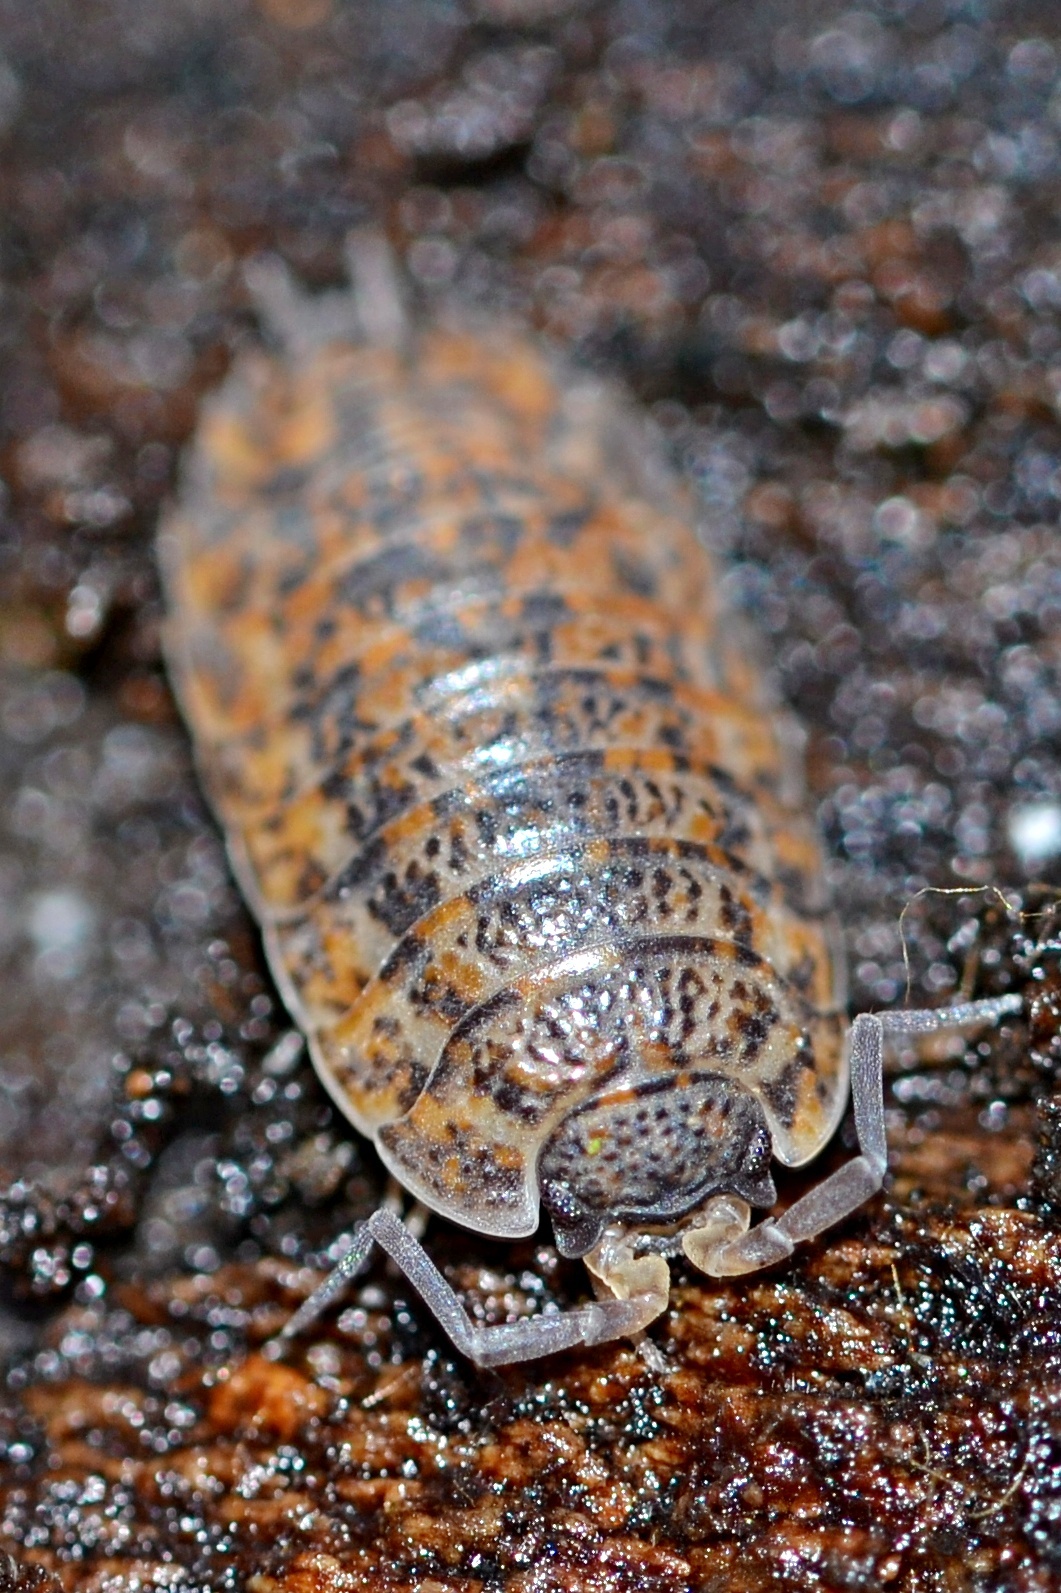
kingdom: Animalia
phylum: Arthropoda
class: Malacostraca
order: Isopoda
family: Trachelipodidae
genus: Trachelipus
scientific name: Trachelipus rathkii
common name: Isopod
